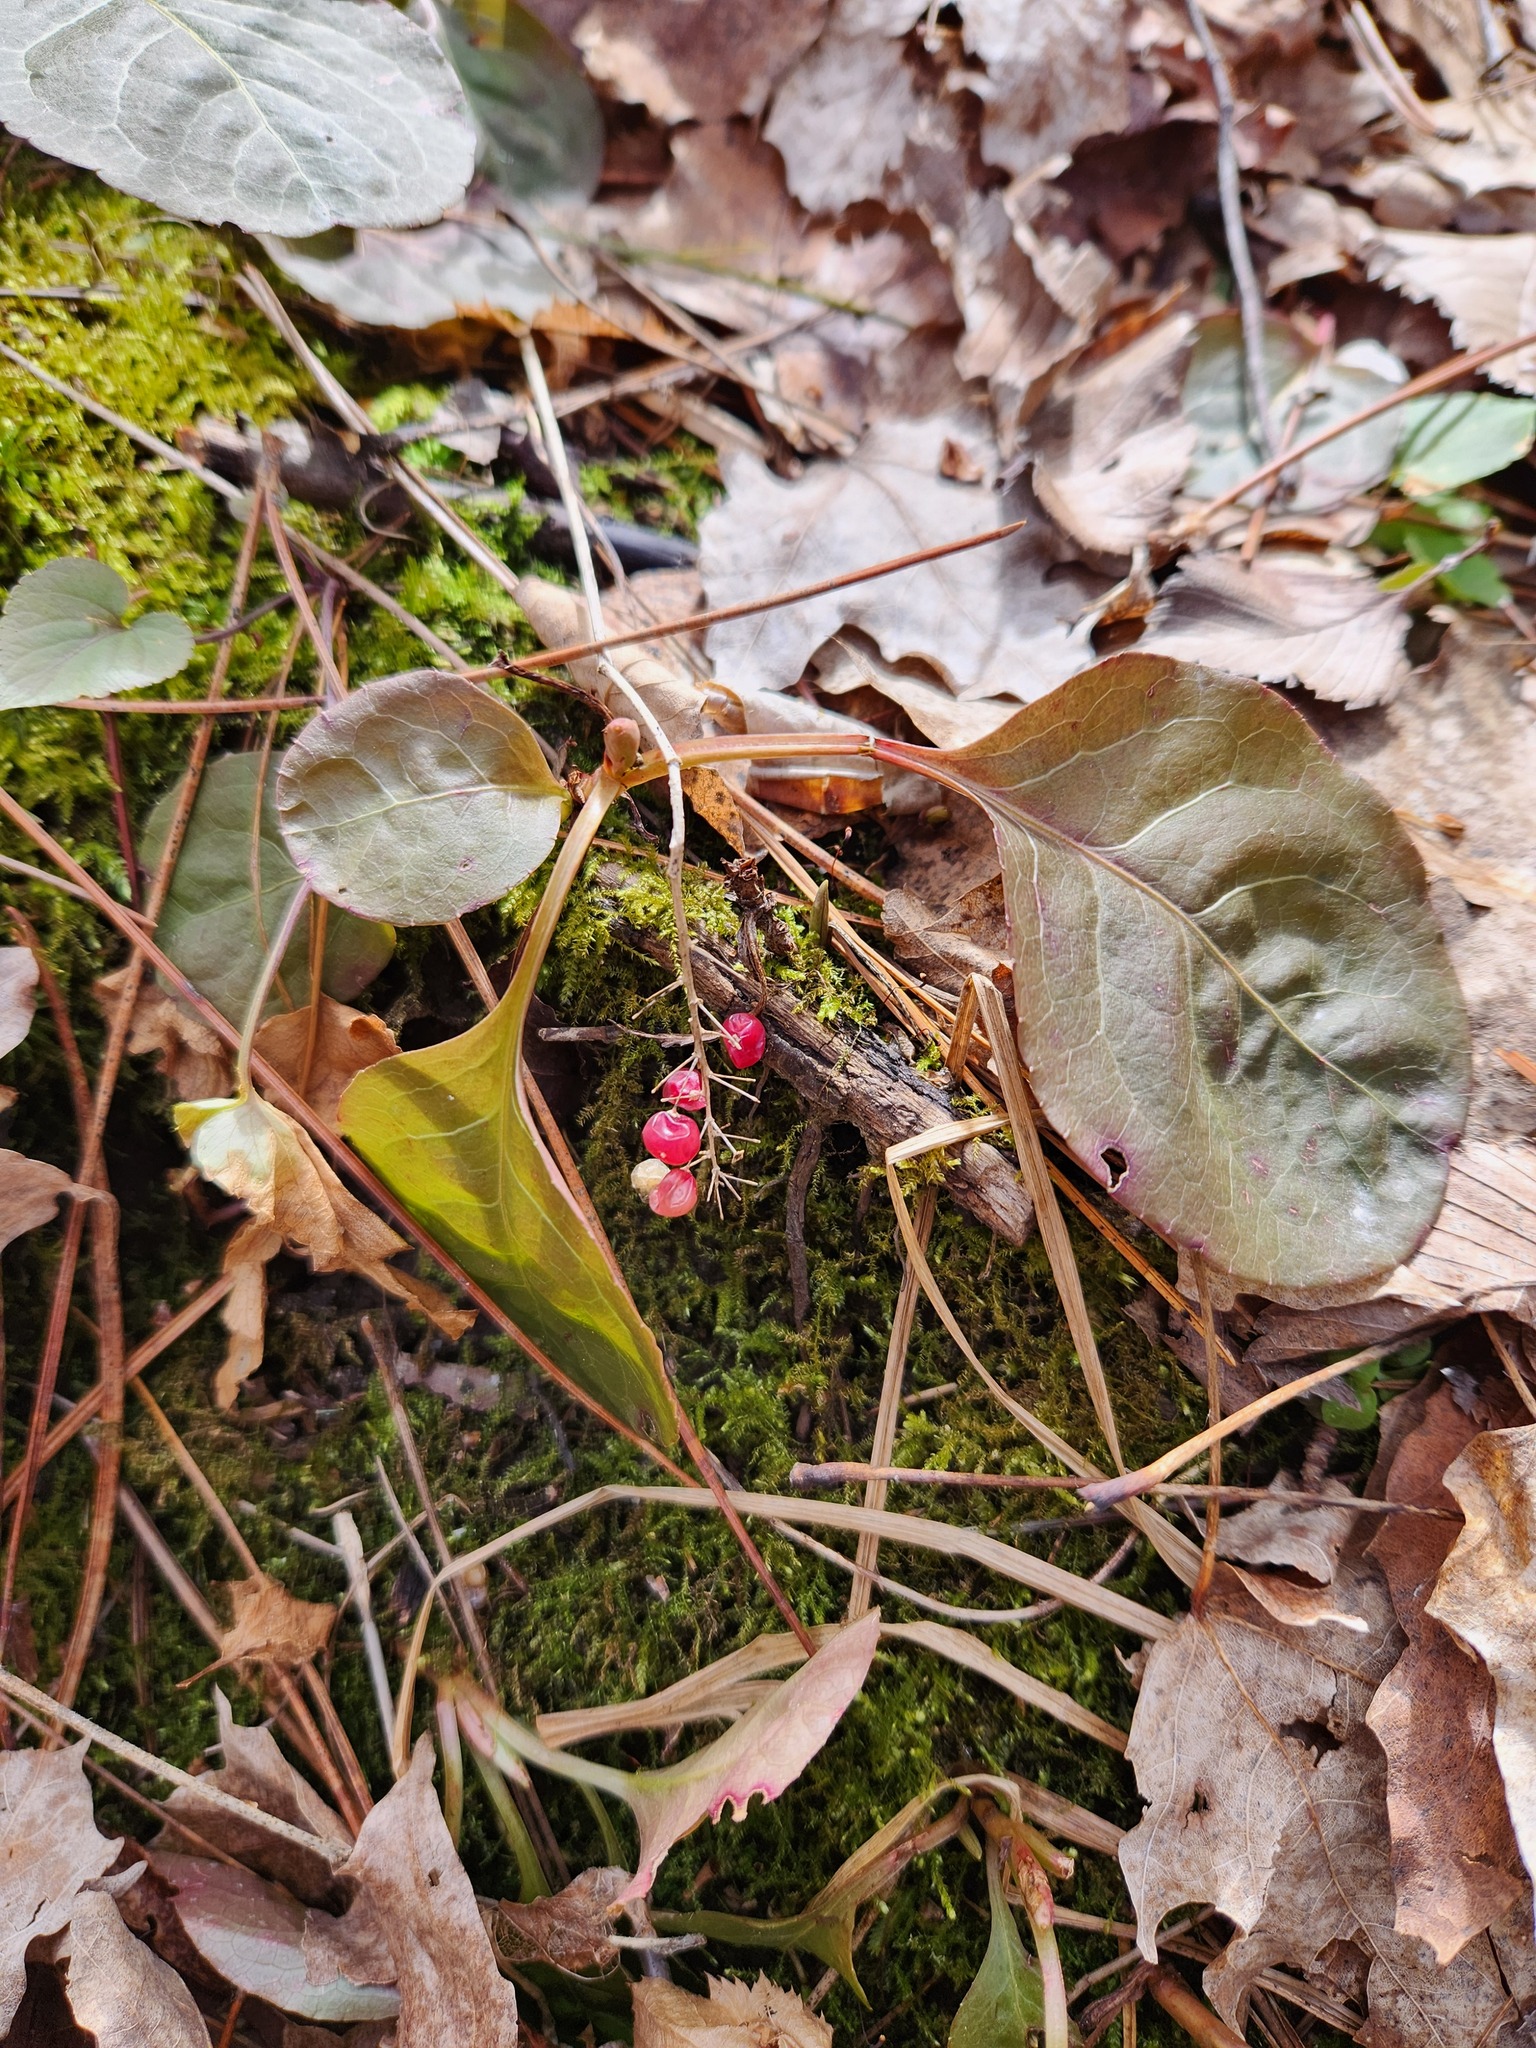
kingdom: Plantae
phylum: Tracheophyta
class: Liliopsida
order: Asparagales
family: Asparagaceae
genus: Maianthemum
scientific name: Maianthemum canadense
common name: False lily-of-the-valley
